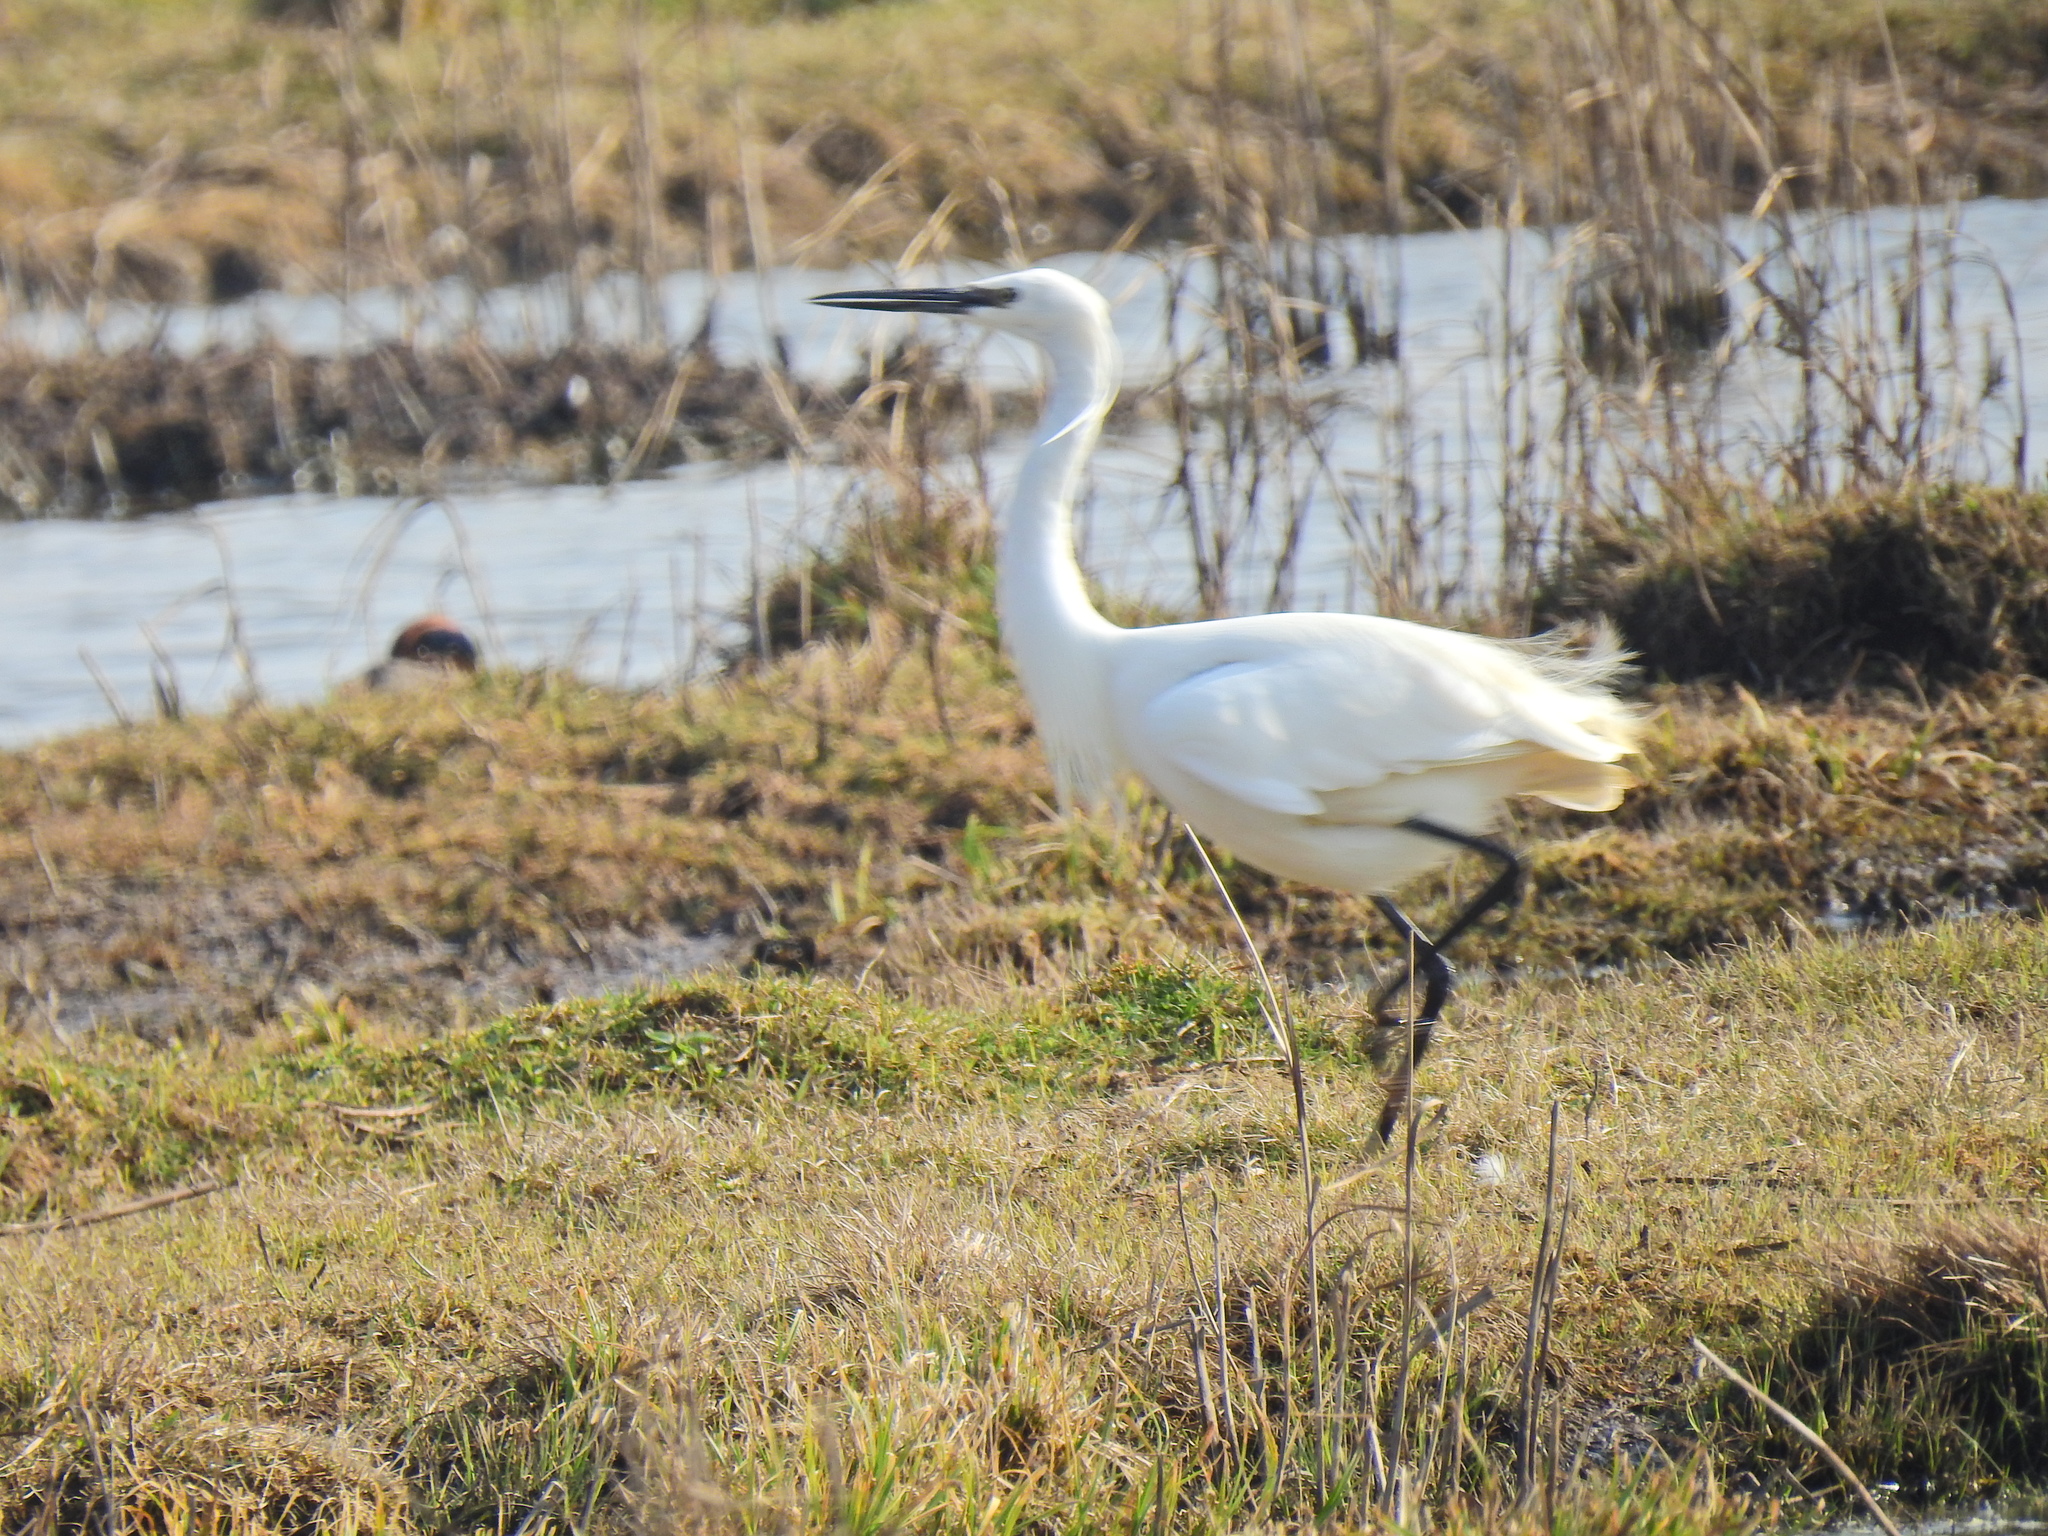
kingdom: Animalia
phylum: Chordata
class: Aves
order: Pelecaniformes
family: Ardeidae
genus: Egretta
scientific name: Egretta garzetta
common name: Little egret
